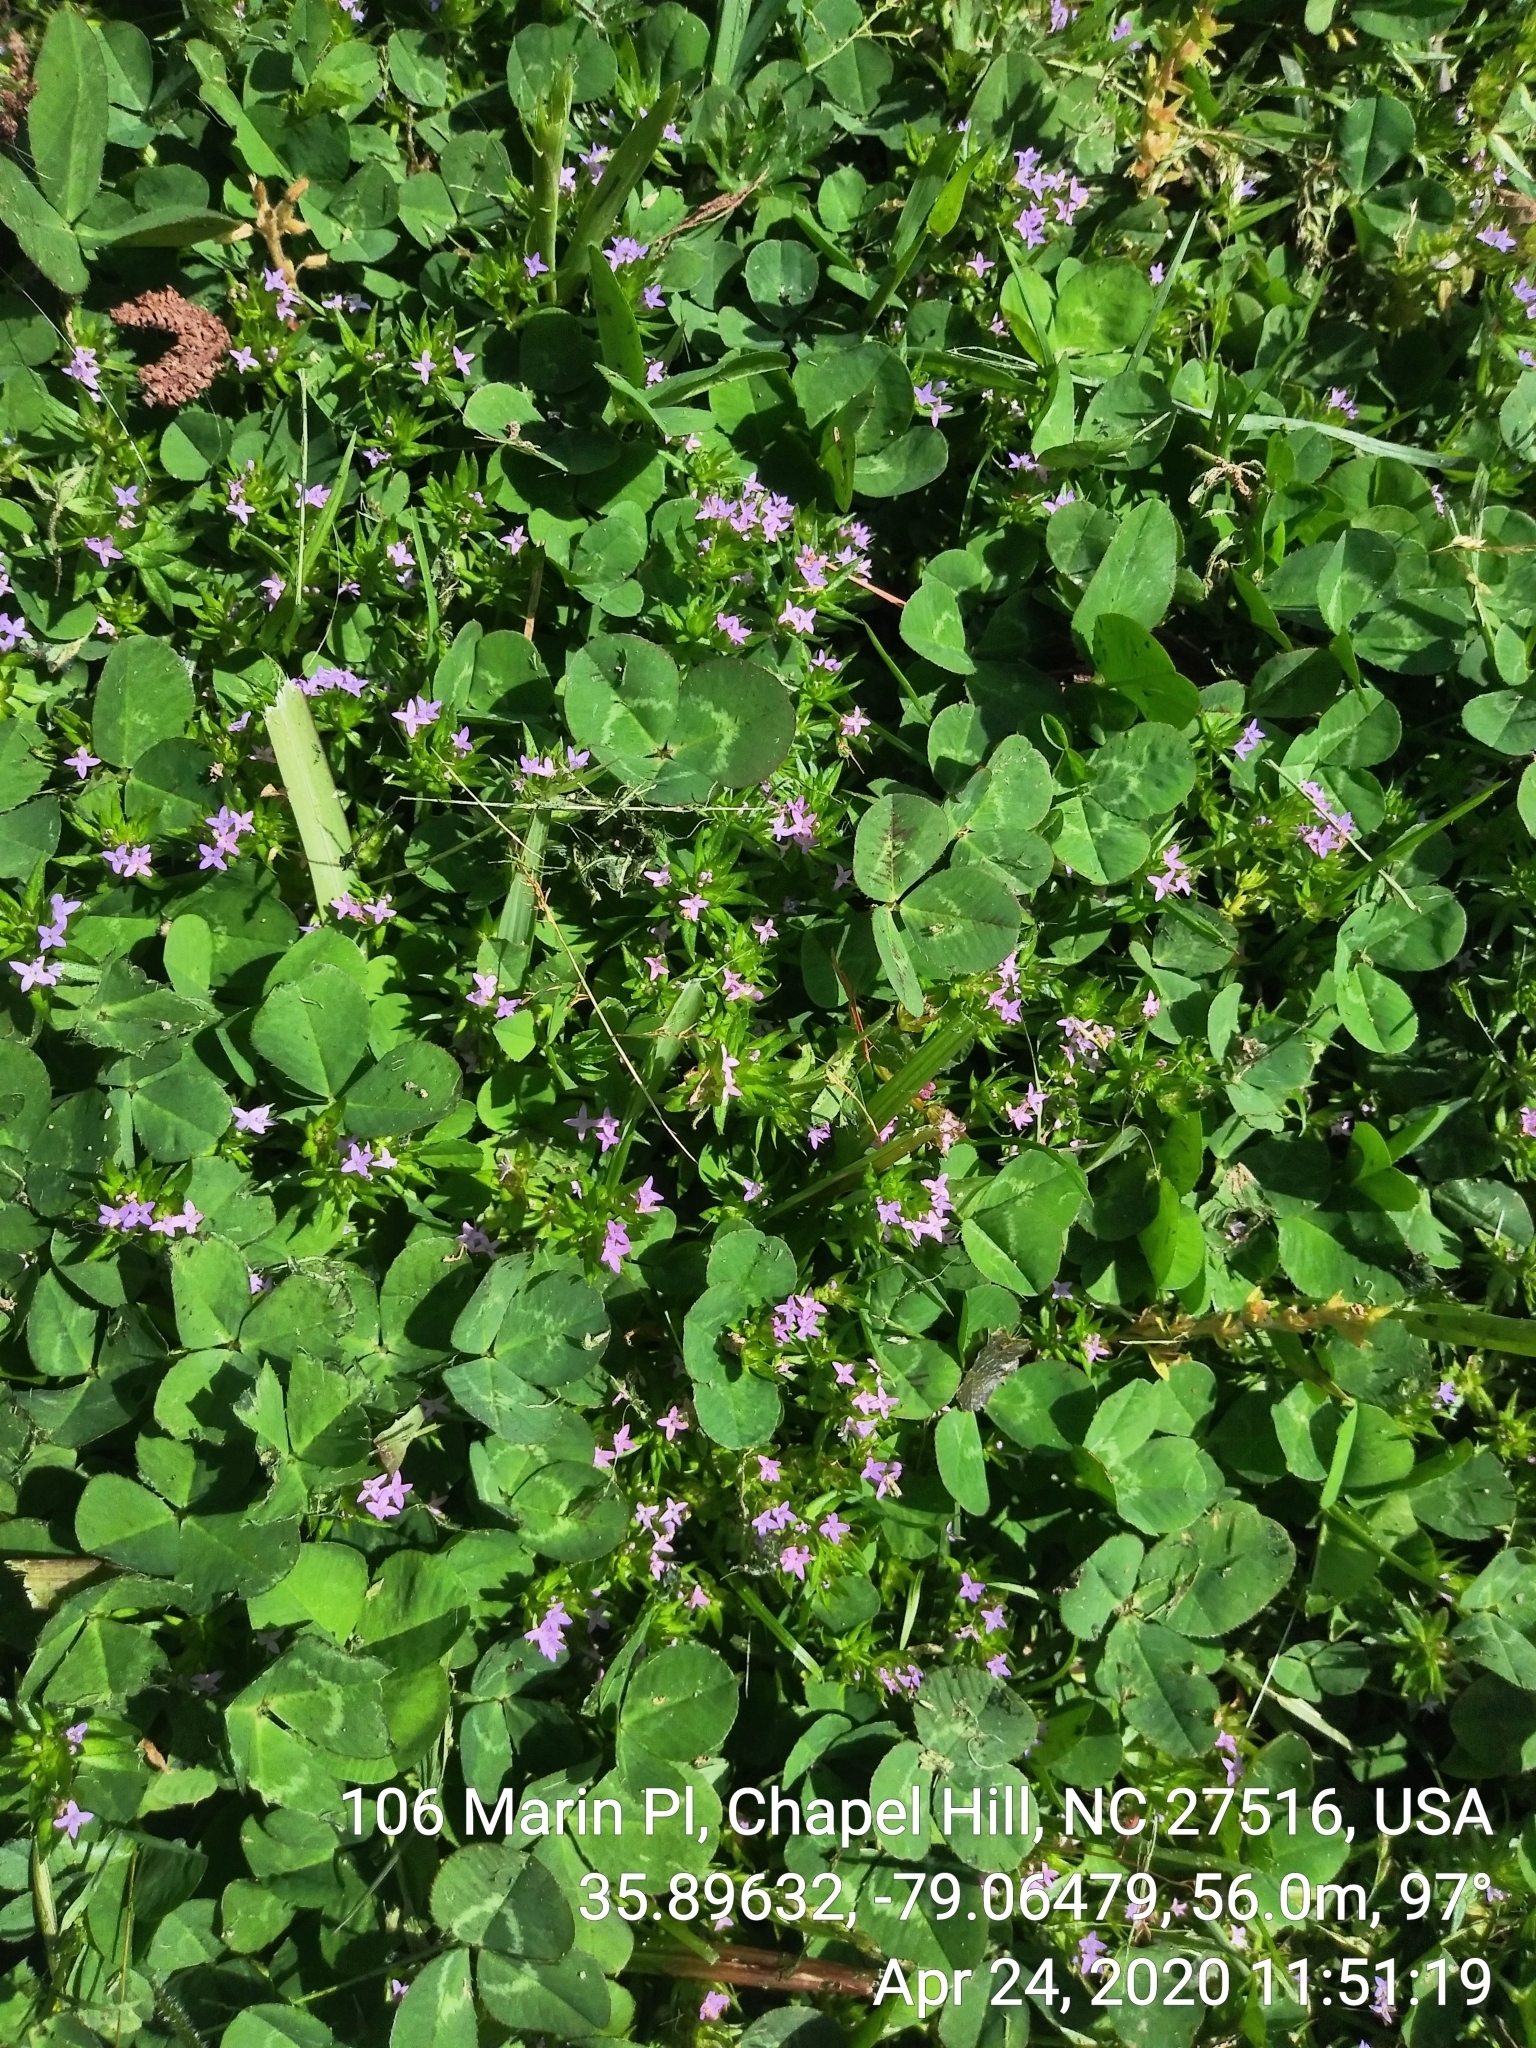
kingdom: Plantae
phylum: Tracheophyta
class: Magnoliopsida
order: Gentianales
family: Rubiaceae
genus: Sherardia
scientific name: Sherardia arvensis
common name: Field madder
